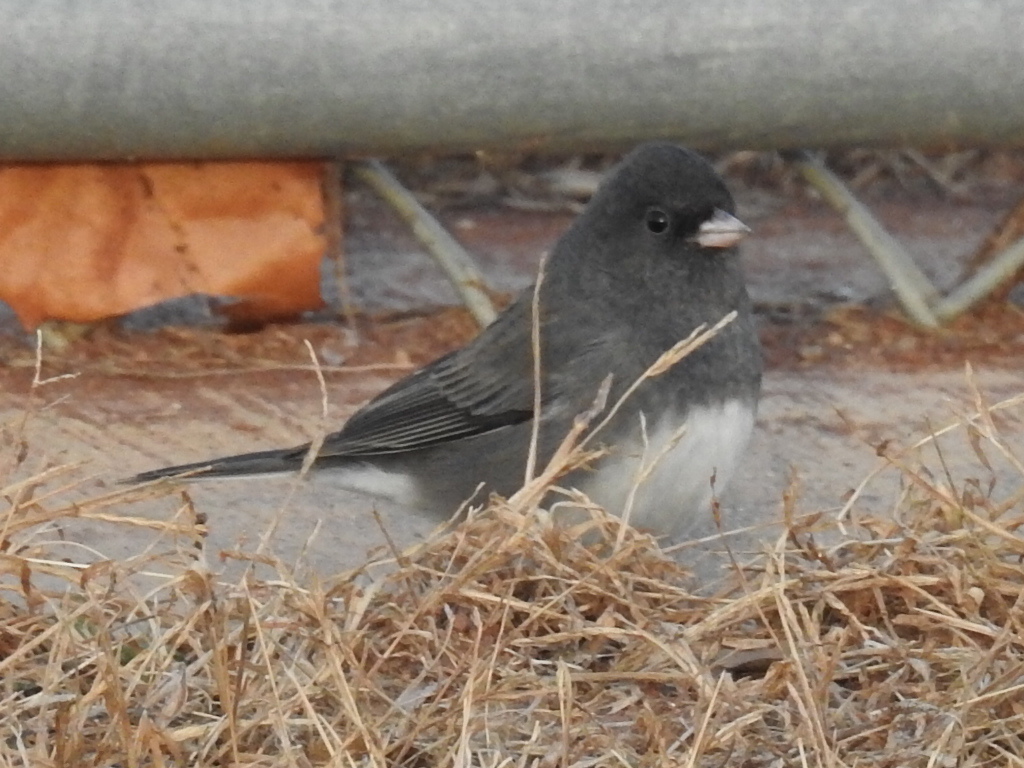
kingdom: Animalia
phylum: Chordata
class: Aves
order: Passeriformes
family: Passerellidae
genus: Junco
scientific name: Junco hyemalis
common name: Dark-eyed junco
